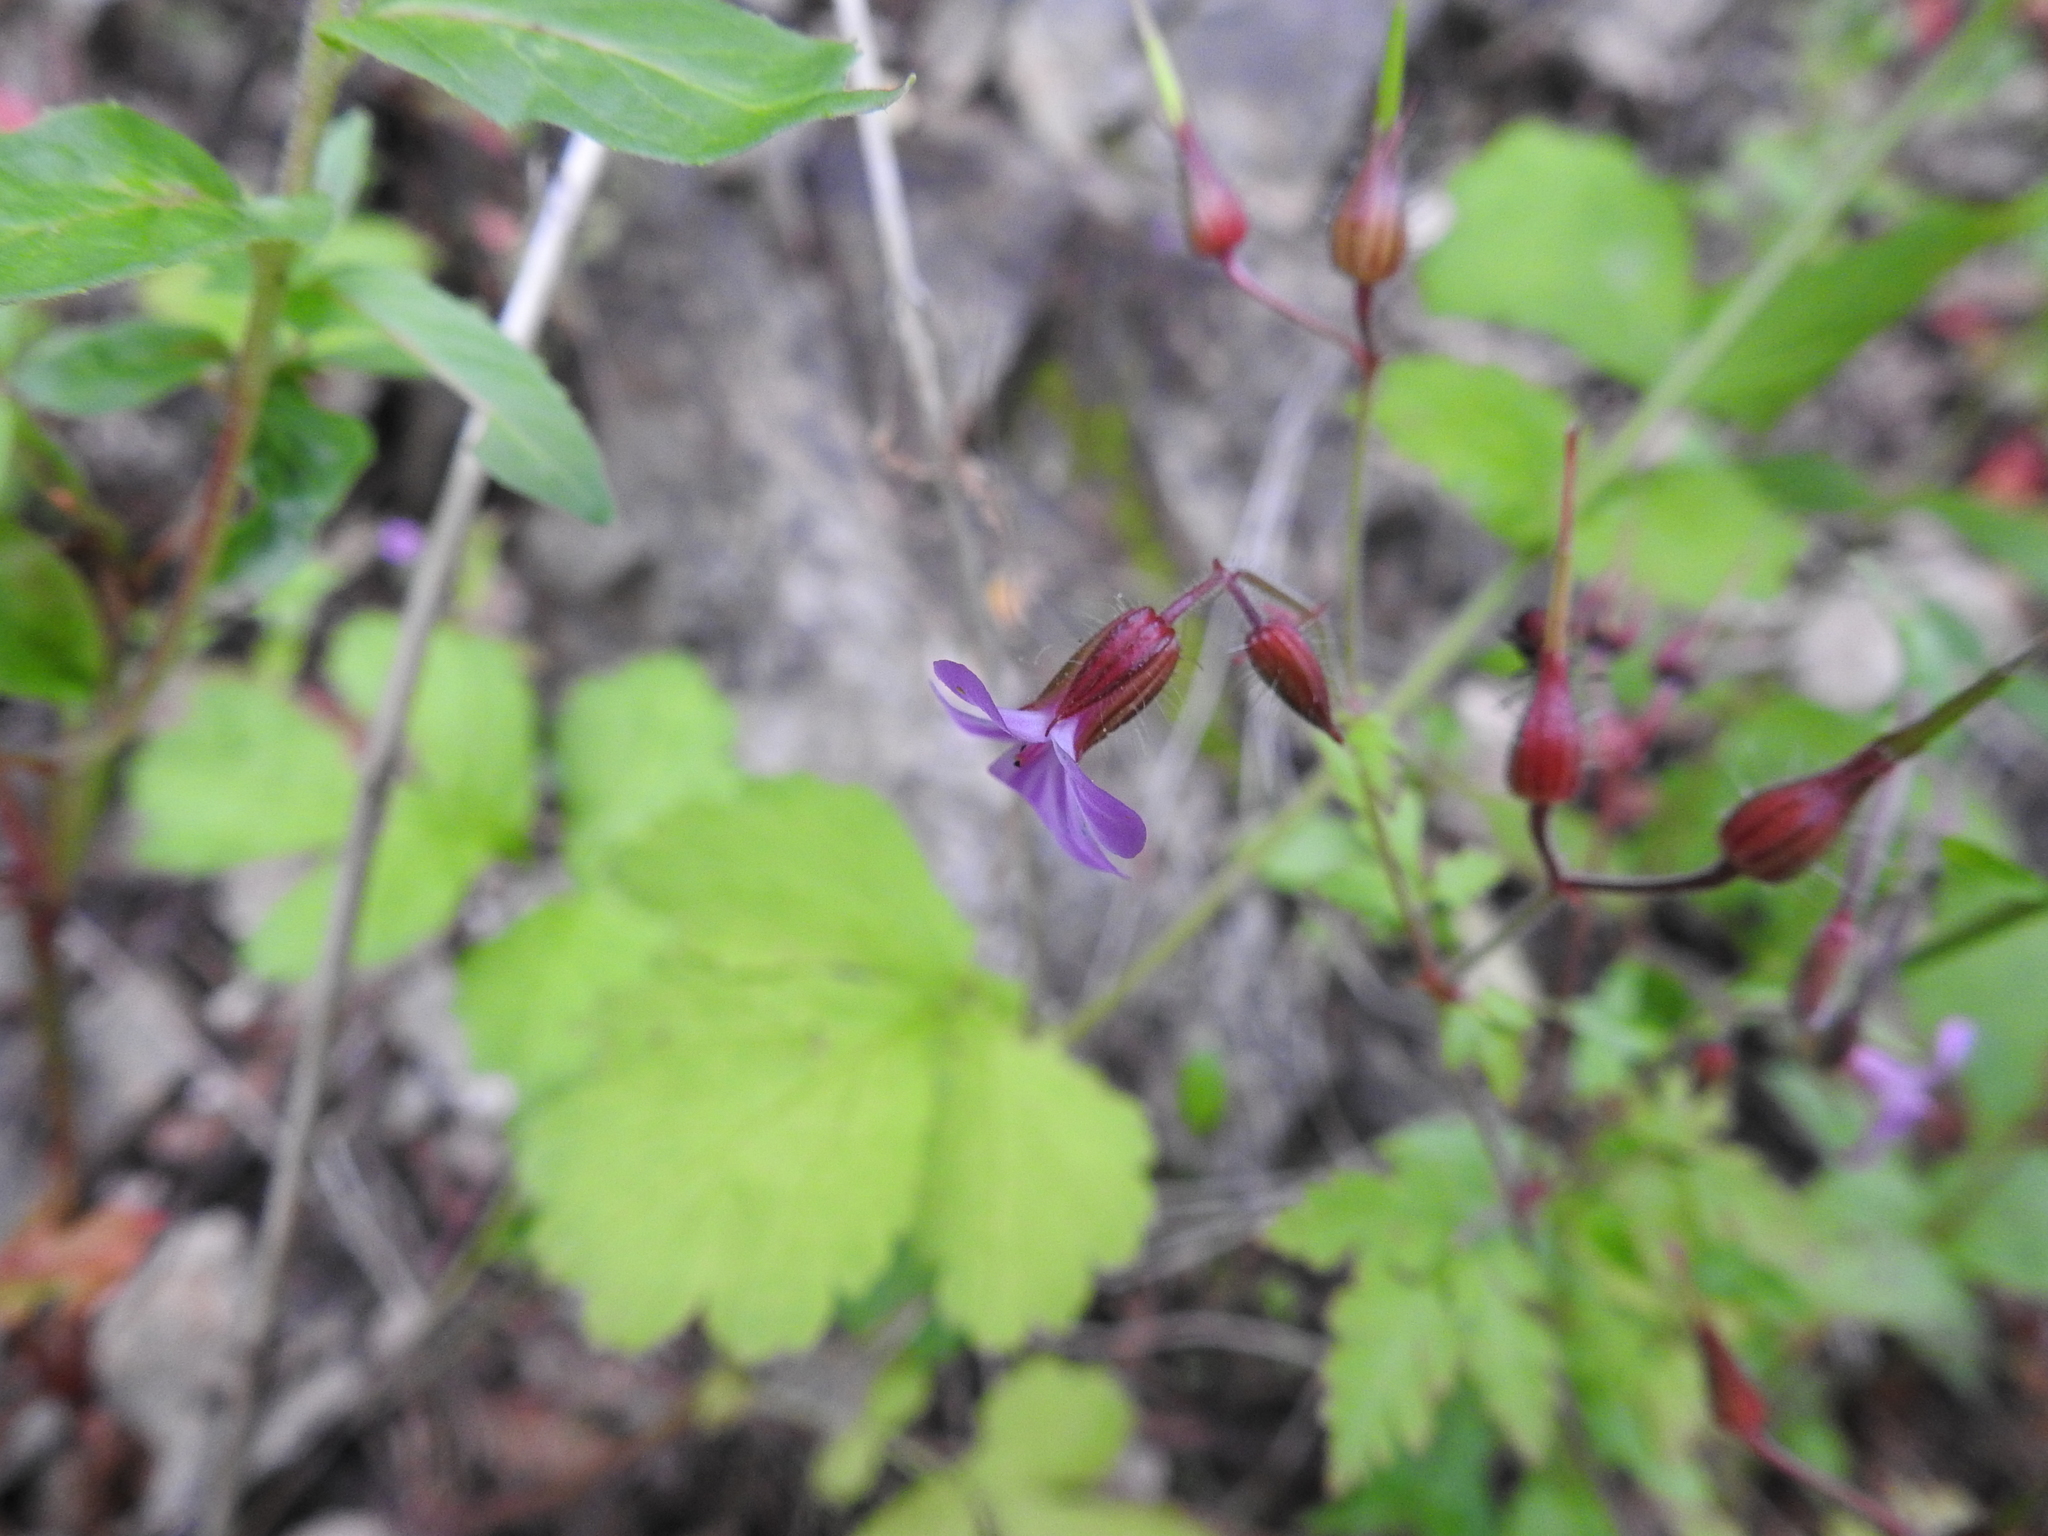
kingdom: Plantae
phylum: Tracheophyta
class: Magnoliopsida
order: Geraniales
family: Geraniaceae
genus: Geranium
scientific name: Geranium robertianum
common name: Herb-robert
